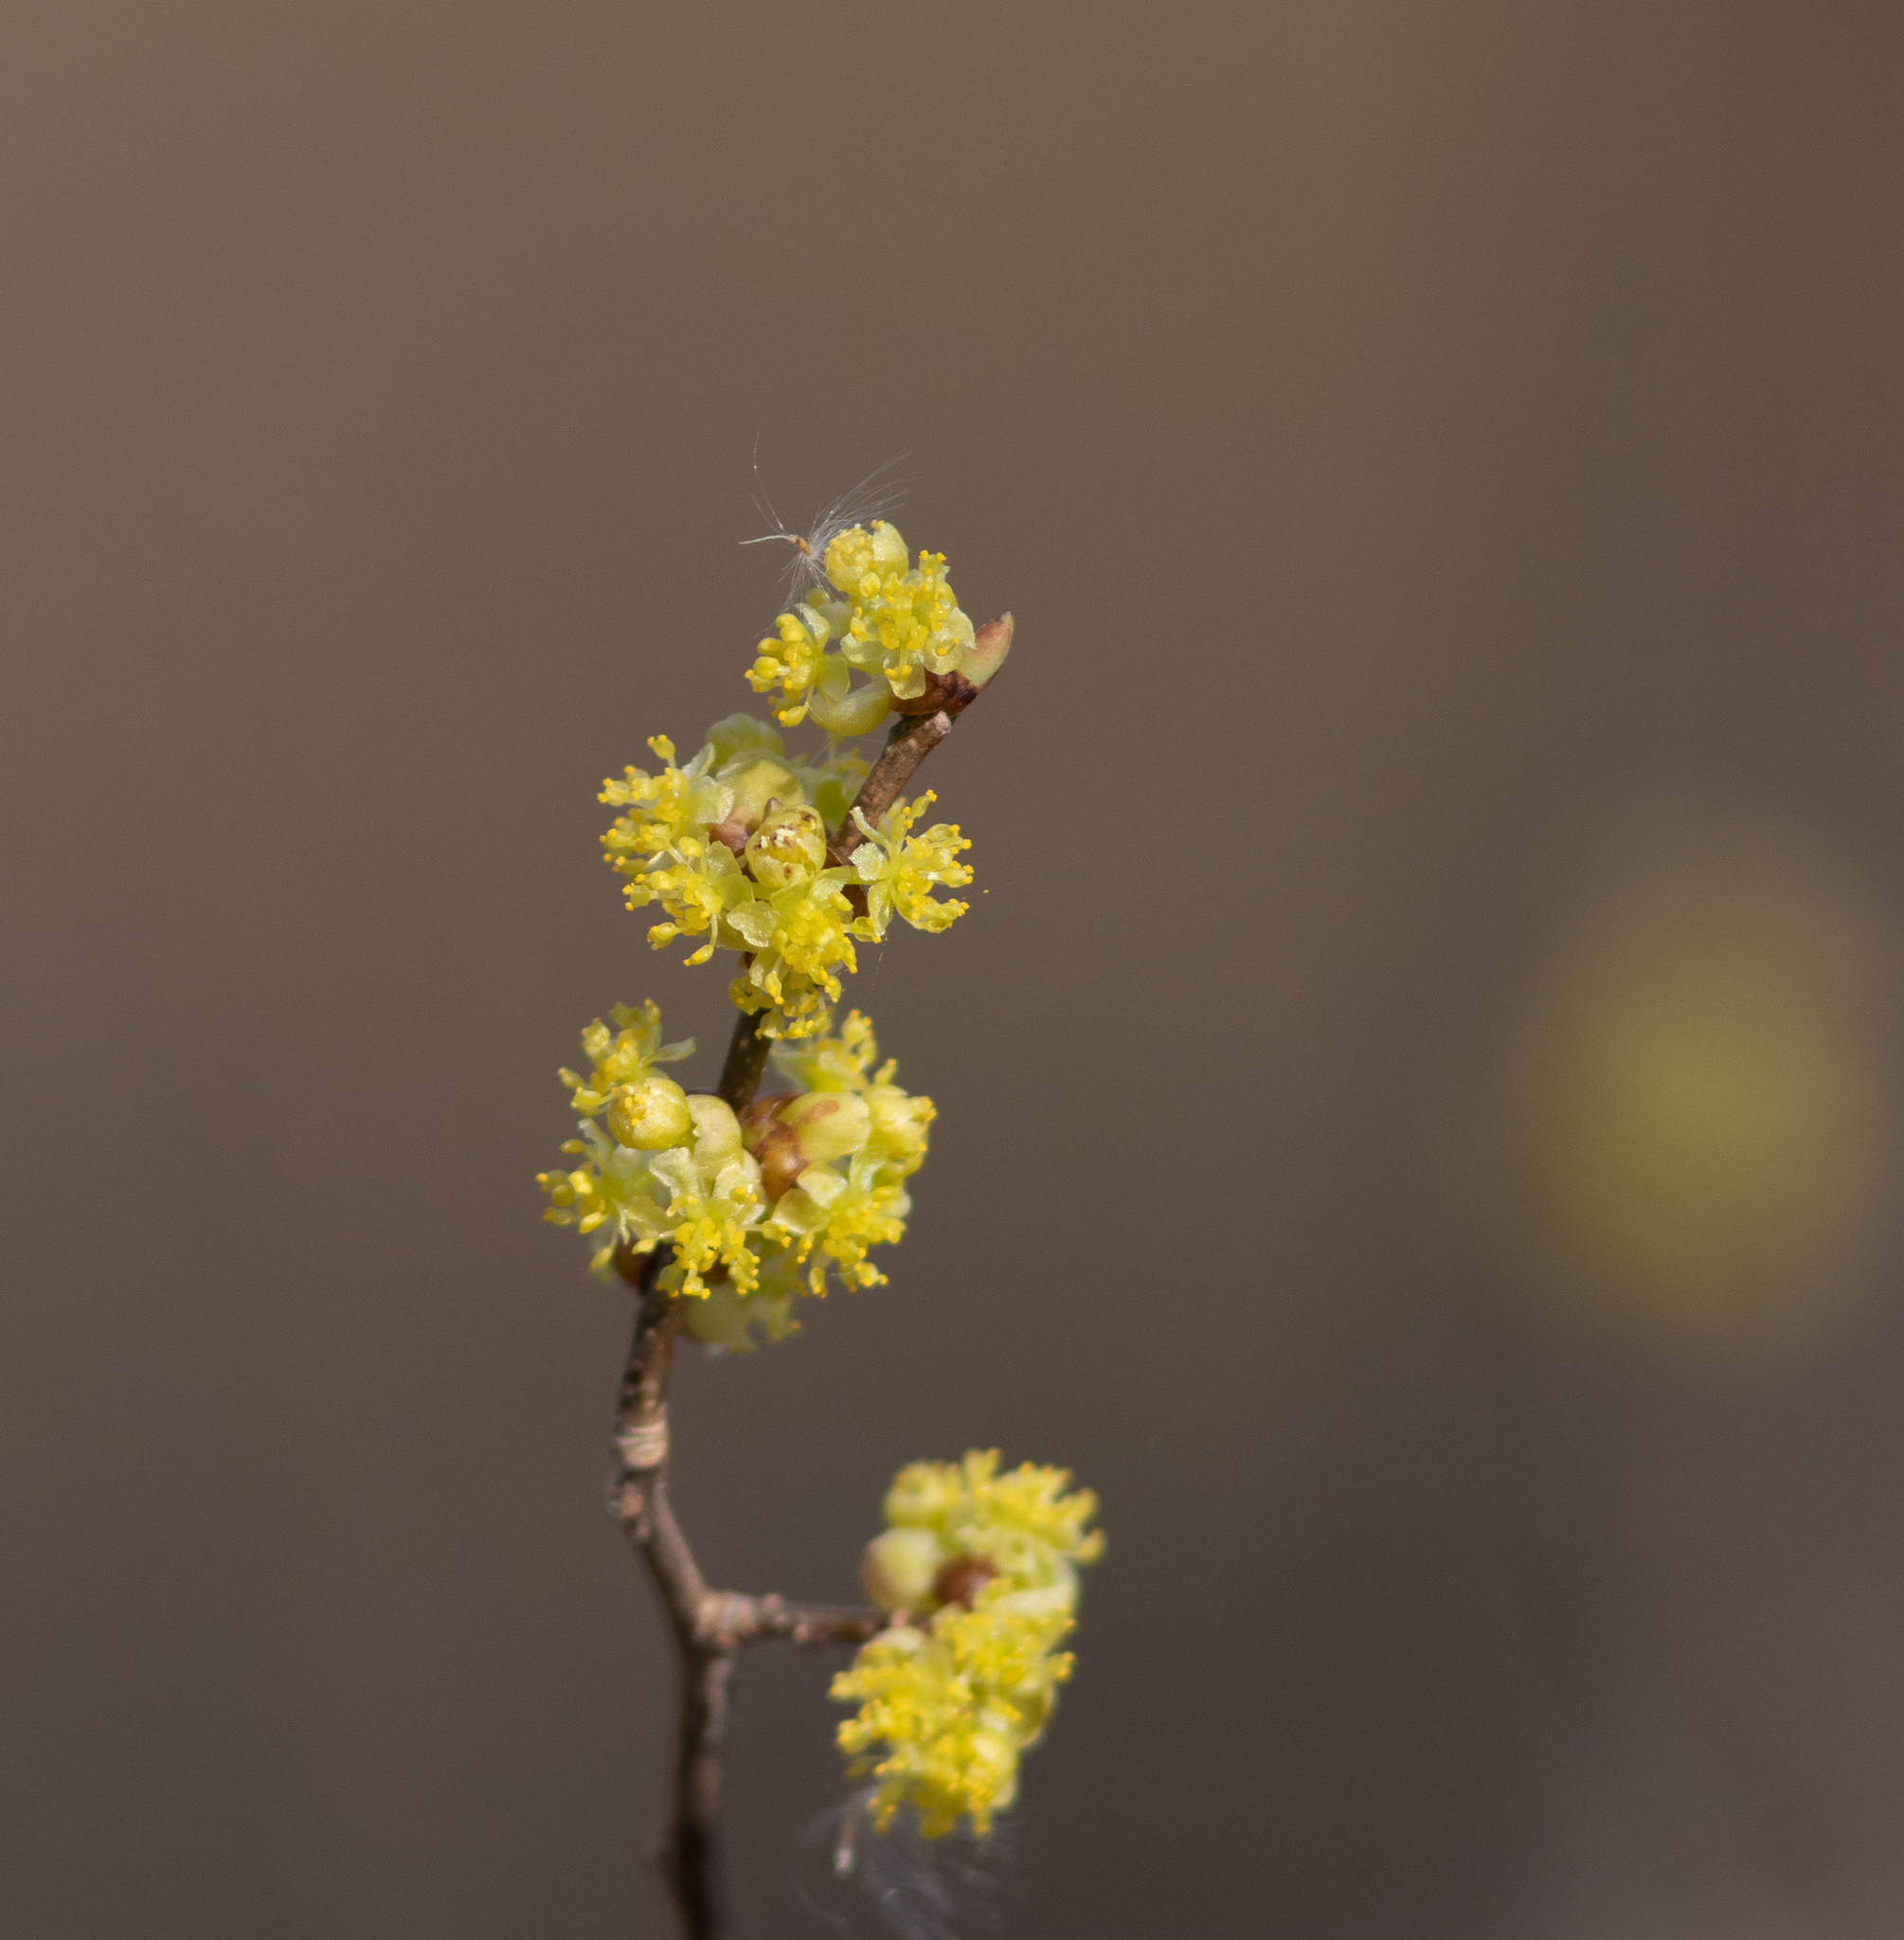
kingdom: Plantae
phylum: Tracheophyta
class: Magnoliopsida
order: Laurales
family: Lauraceae
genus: Lindera
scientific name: Lindera benzoin
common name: Spicebush
